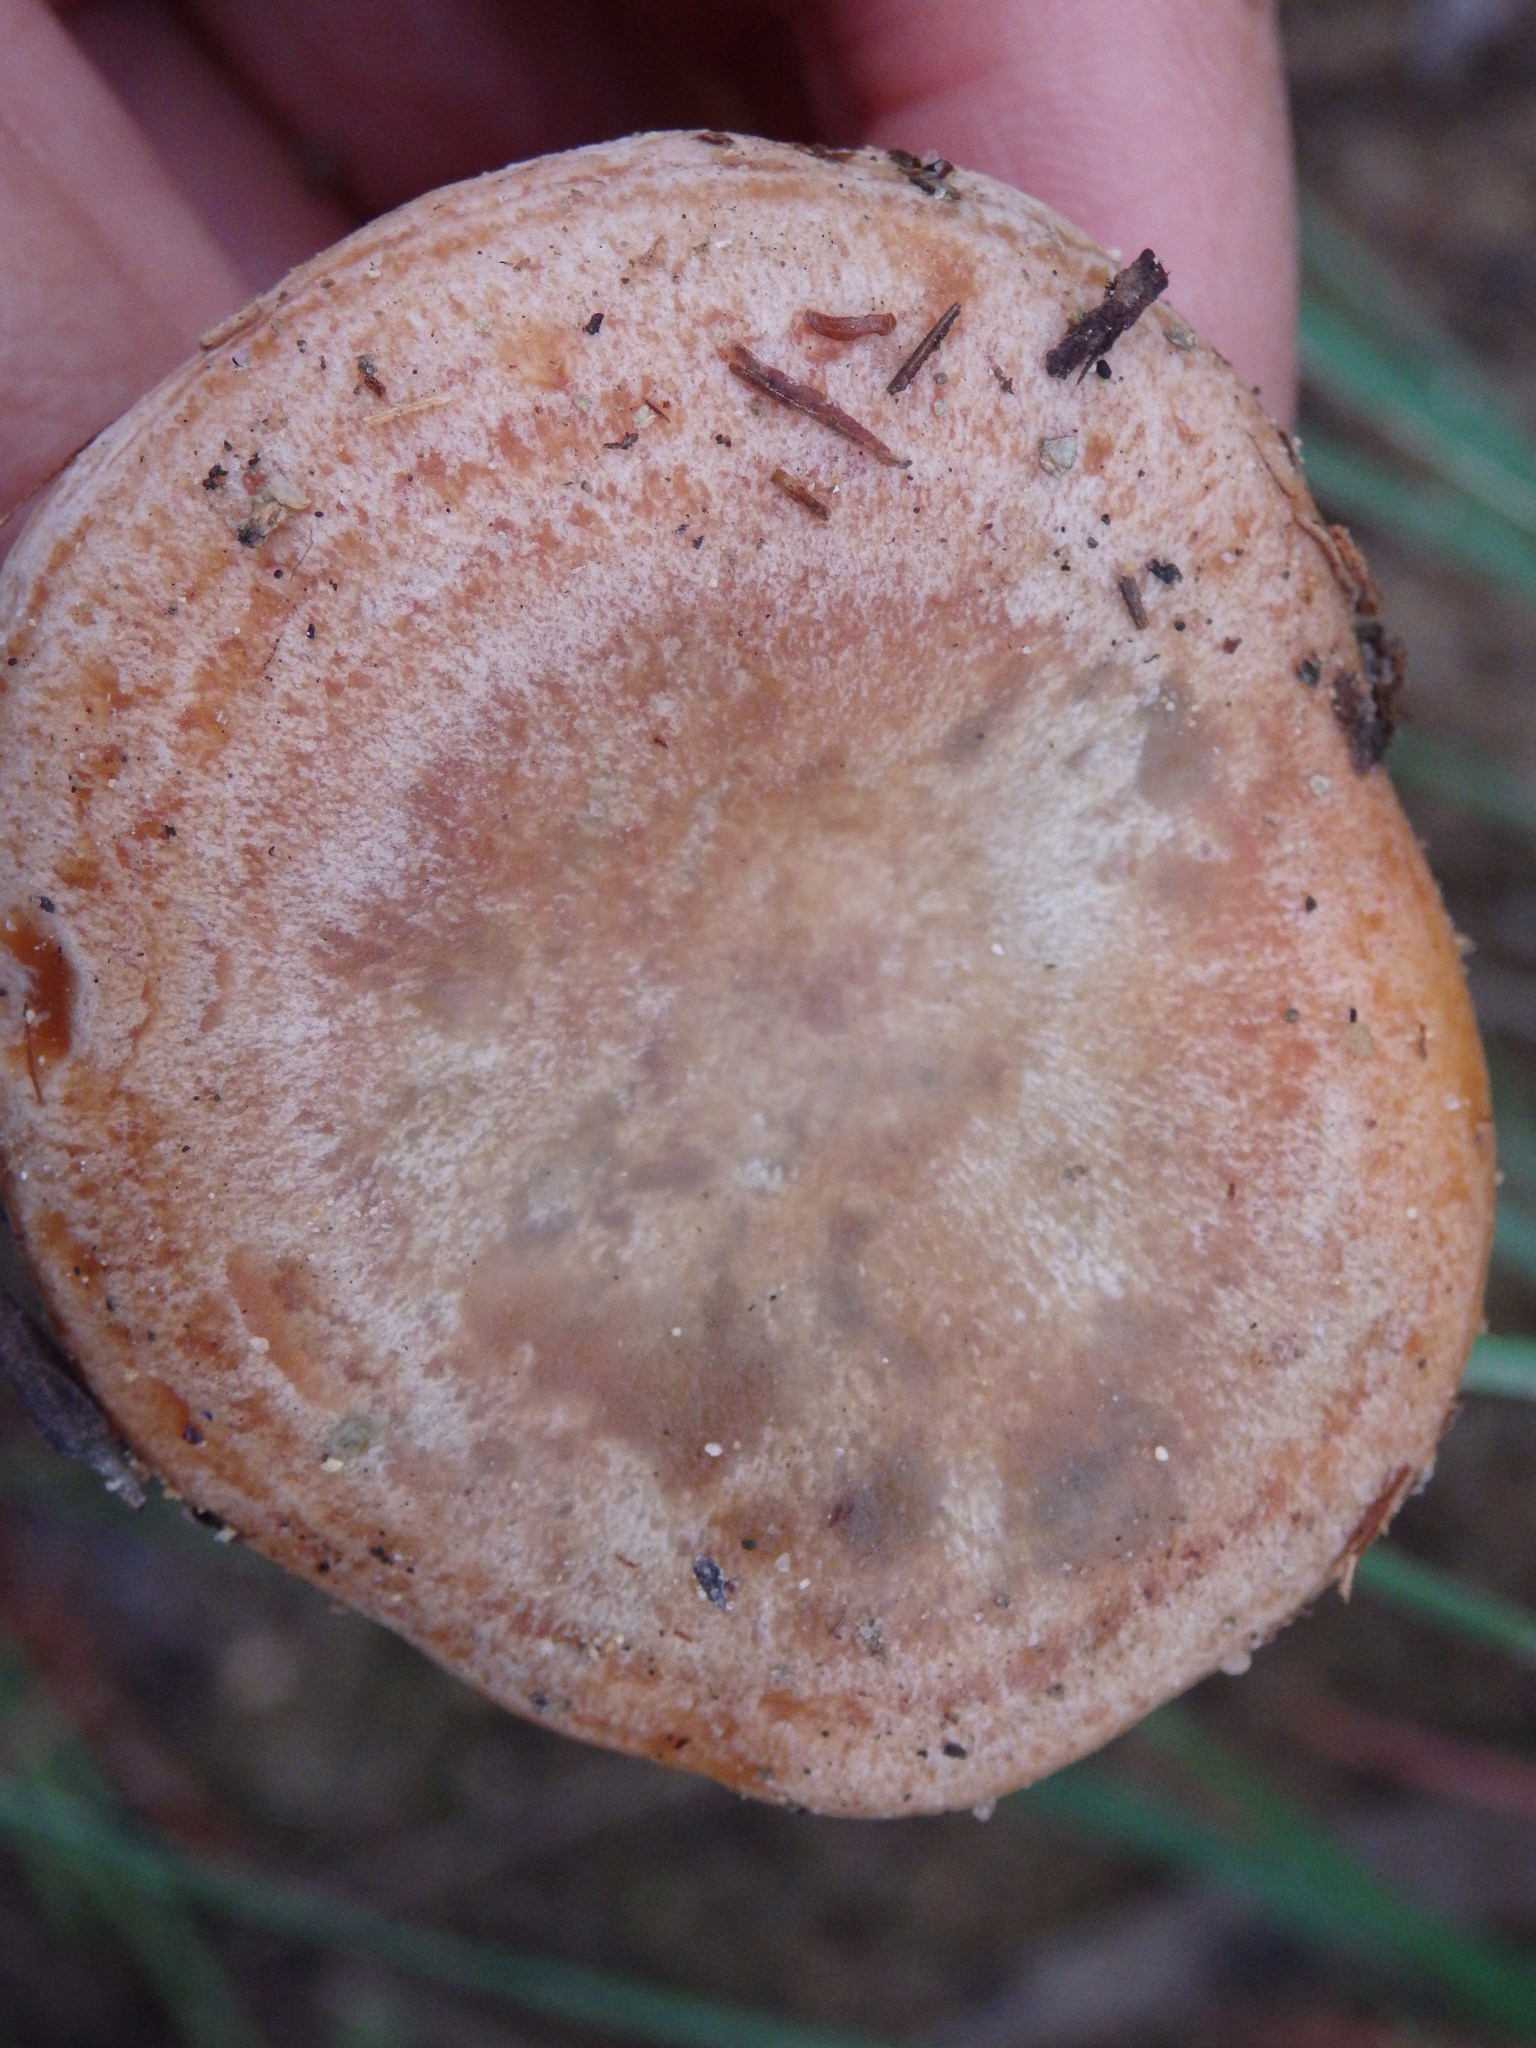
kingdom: Fungi
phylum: Basidiomycota
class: Agaricomycetes
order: Russulales
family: Russulaceae
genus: Lactarius
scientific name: Lactarius deliciosus
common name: Saffron milk-cap
